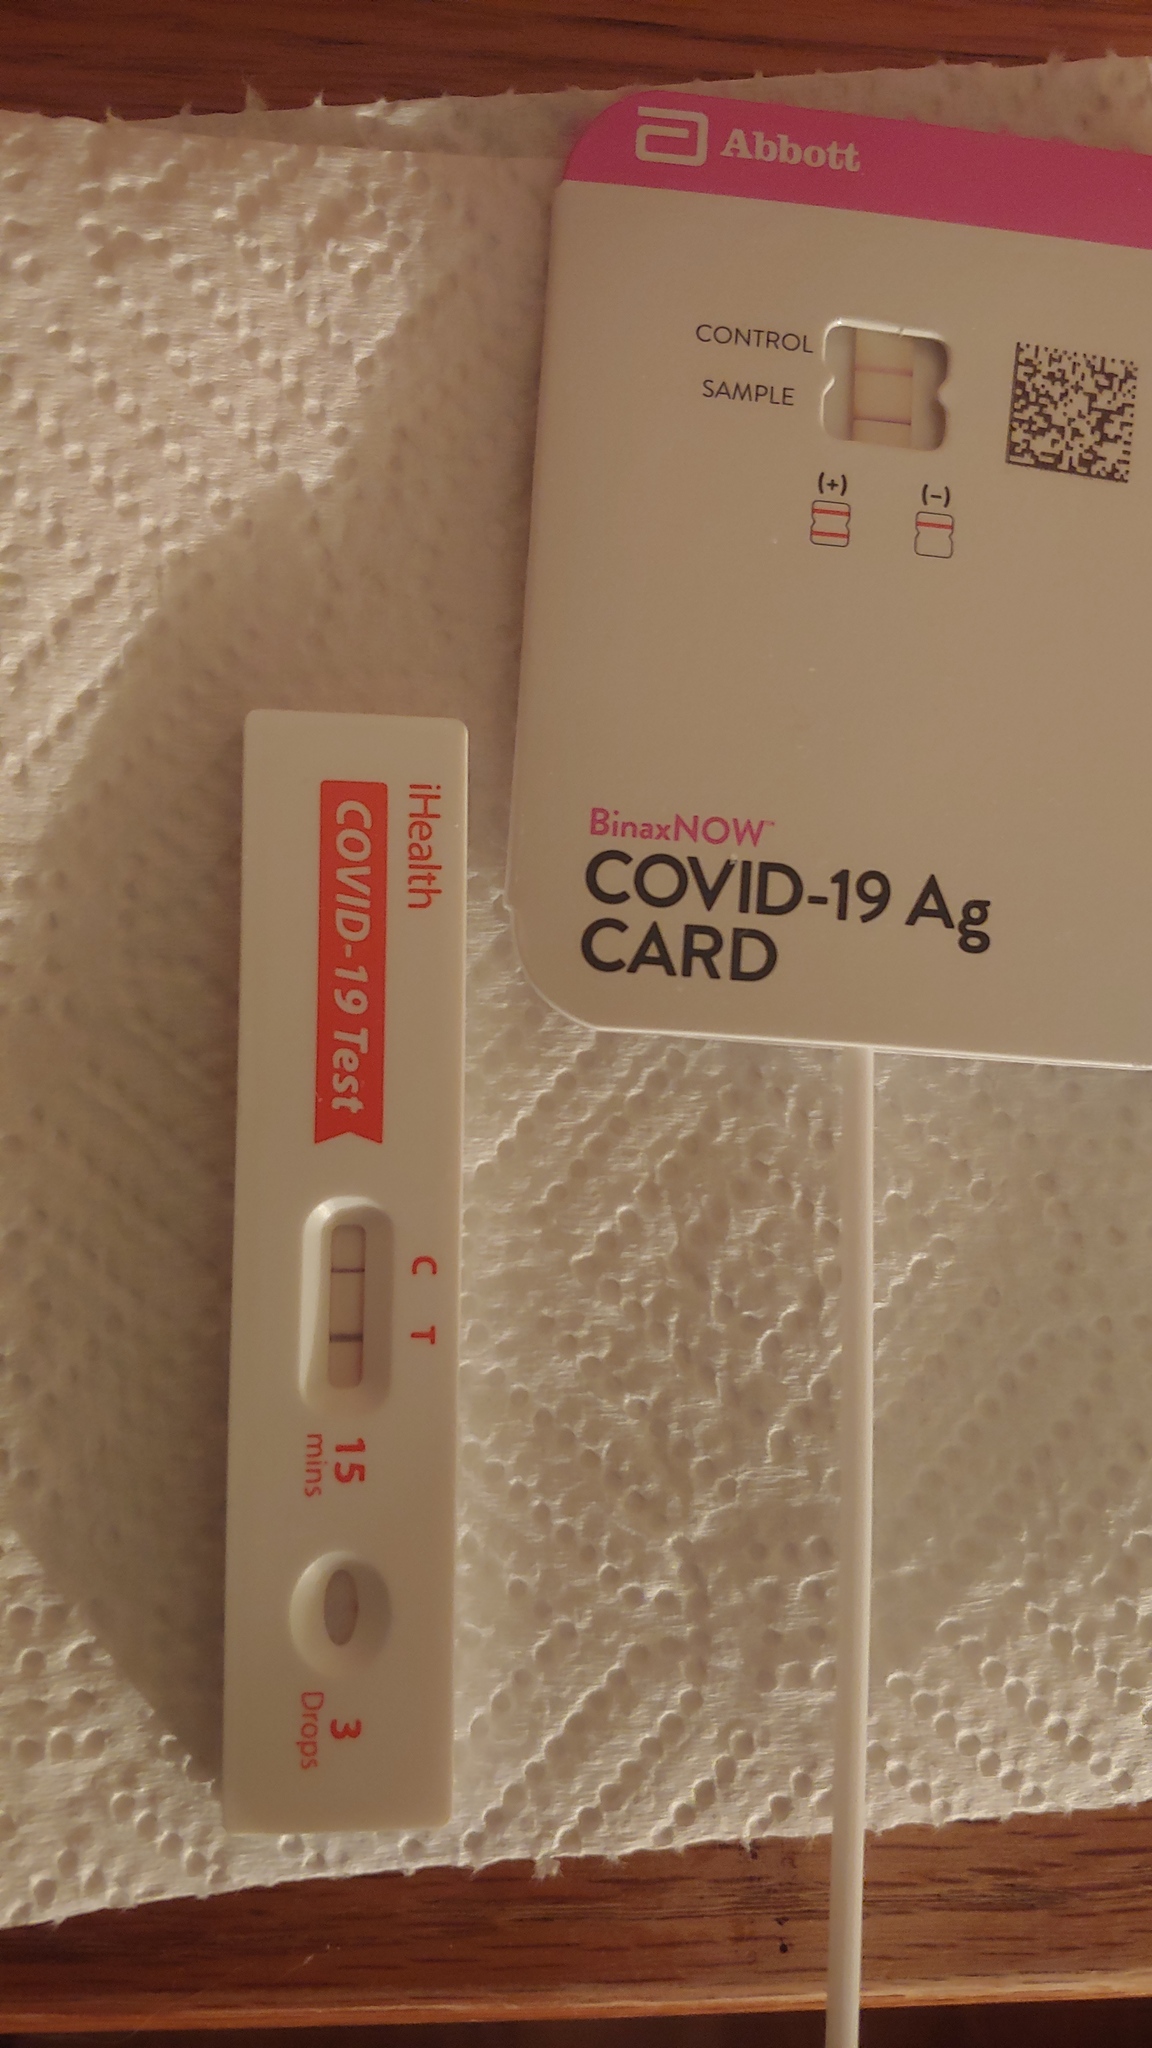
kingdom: Viruses
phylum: Pisuviricota
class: Pisoniviricetes
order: Nidovirales
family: Coronaviridae
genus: Betacoronavirus
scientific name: Betacoronavirus
